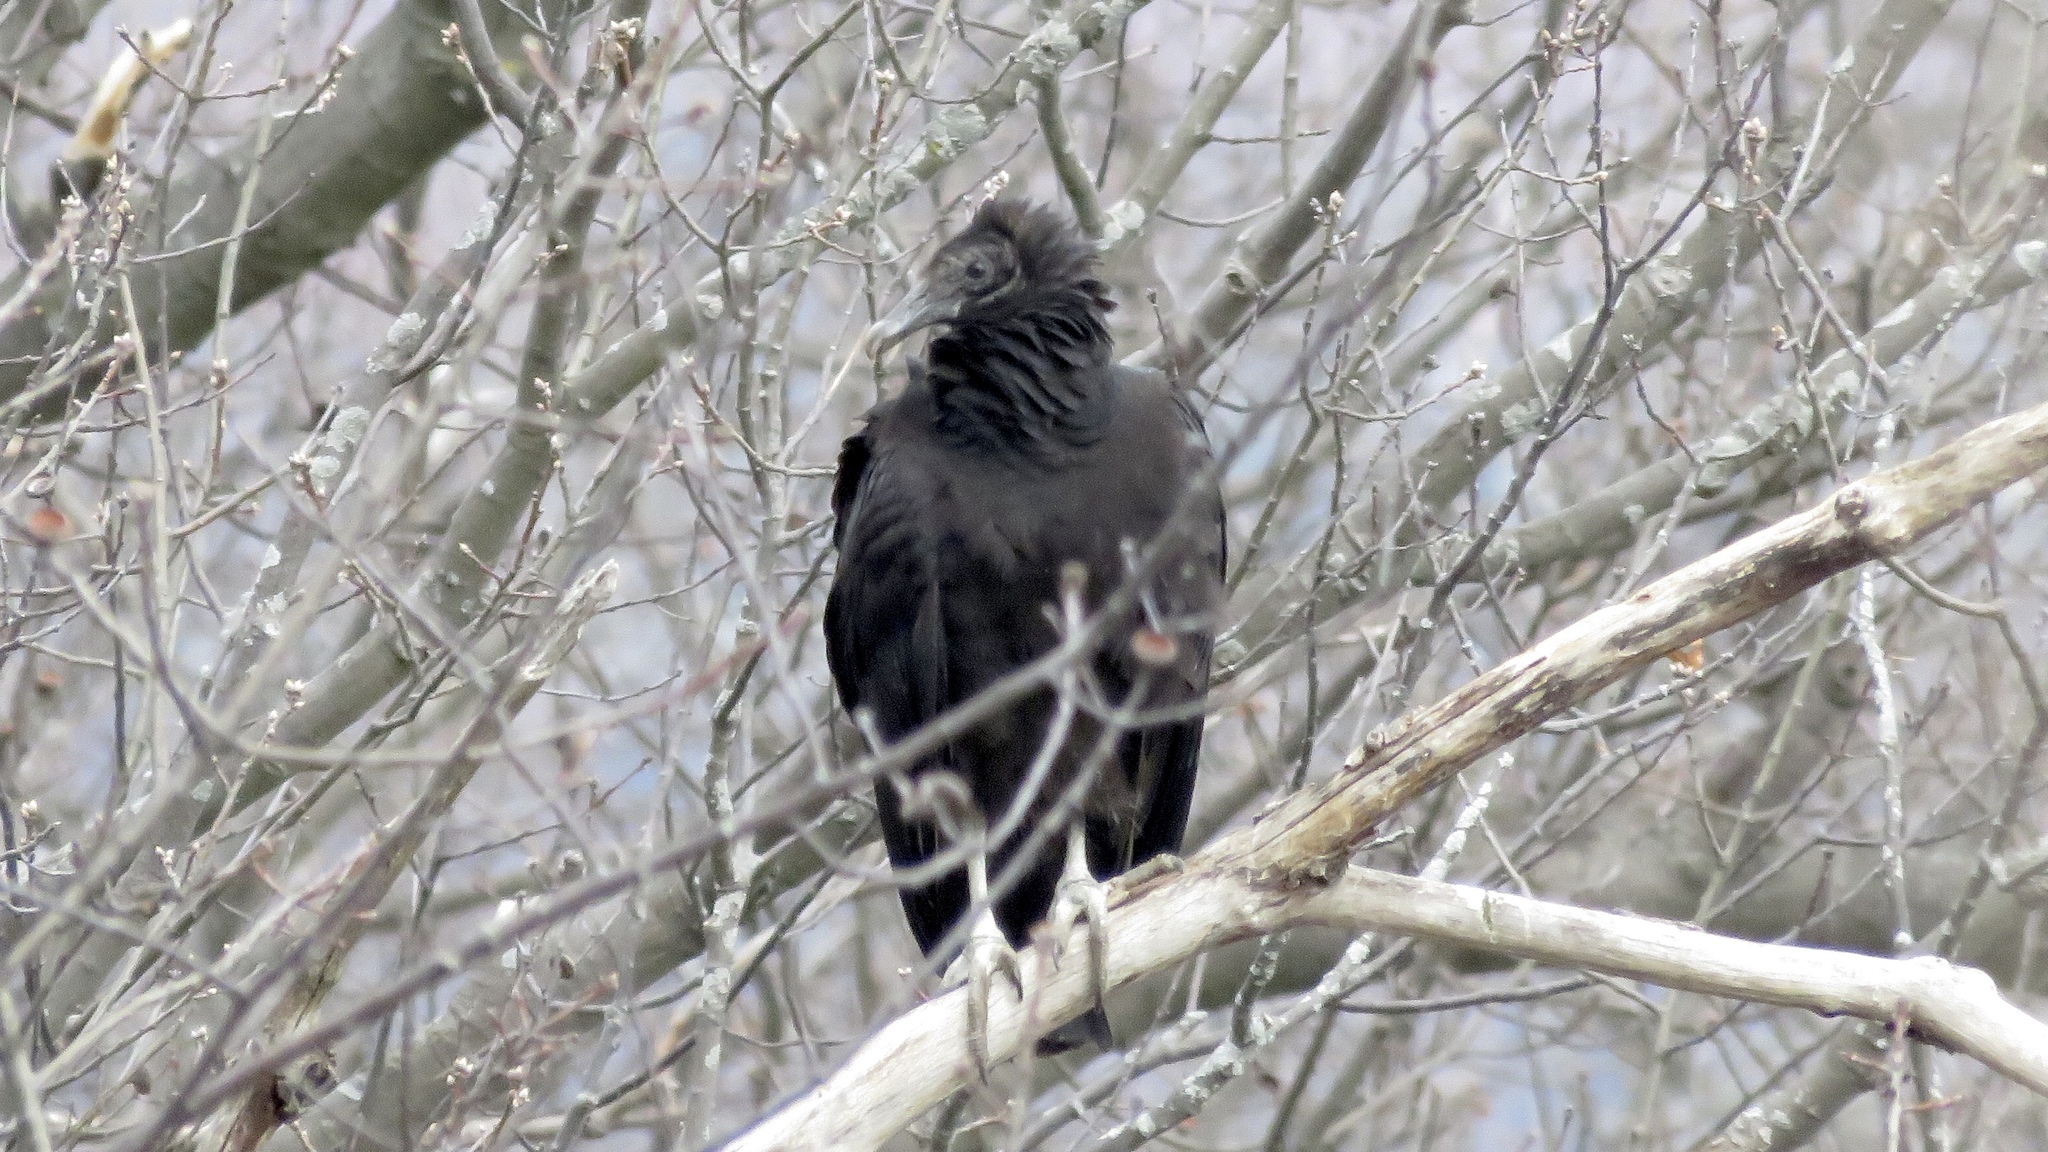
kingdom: Animalia
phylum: Chordata
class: Aves
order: Accipitriformes
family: Cathartidae
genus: Coragyps
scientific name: Coragyps atratus
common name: Black vulture
